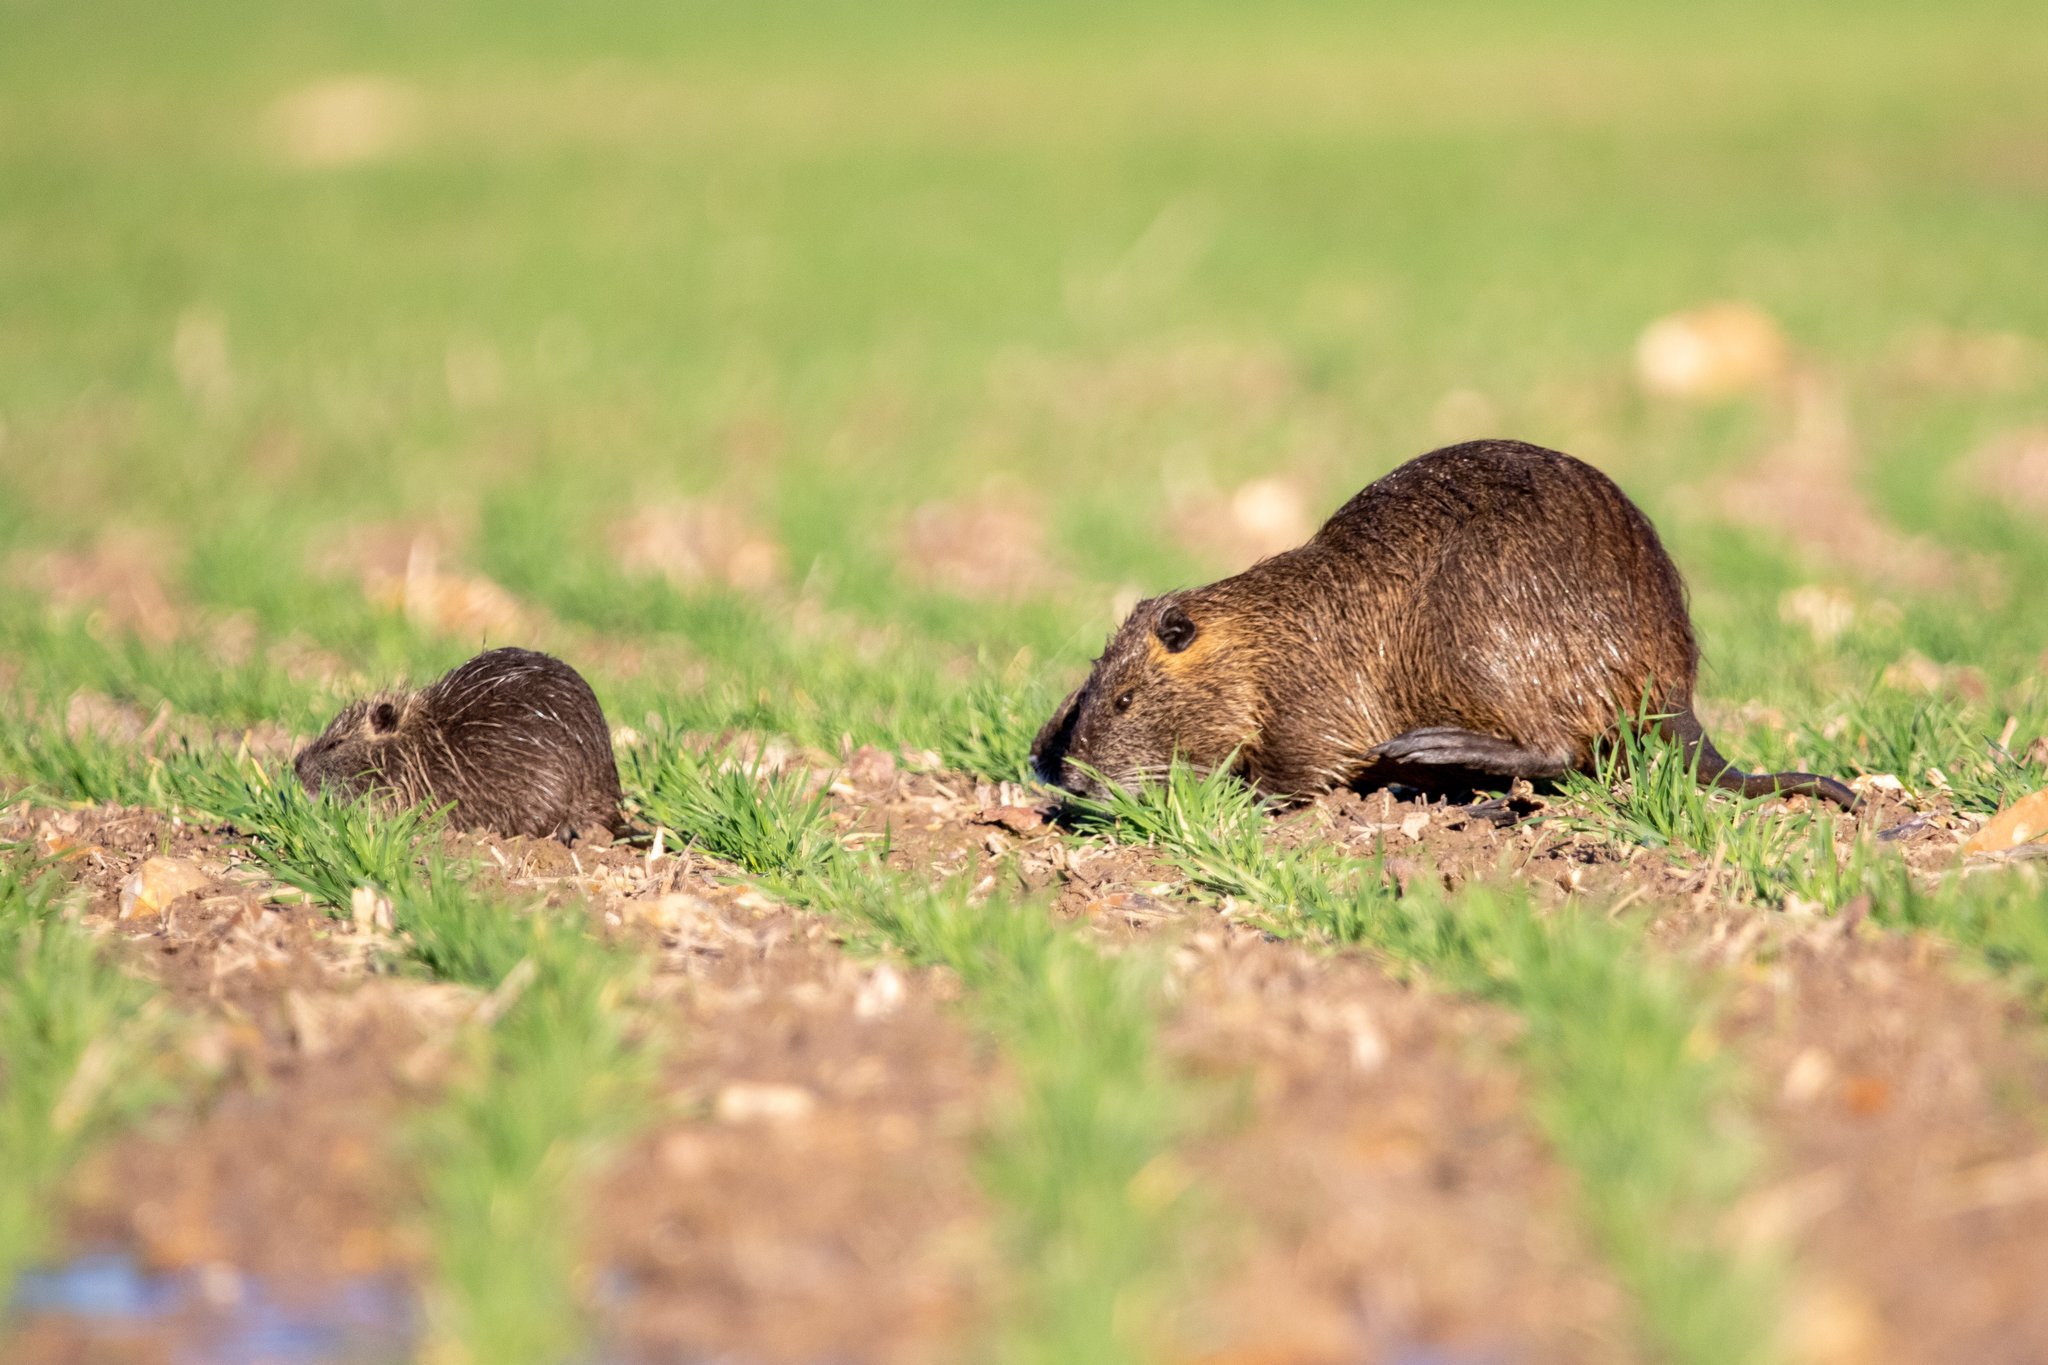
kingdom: Animalia
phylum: Chordata
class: Mammalia
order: Rodentia
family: Myocastoridae
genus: Myocastor
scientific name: Myocastor coypus
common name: Coypu
